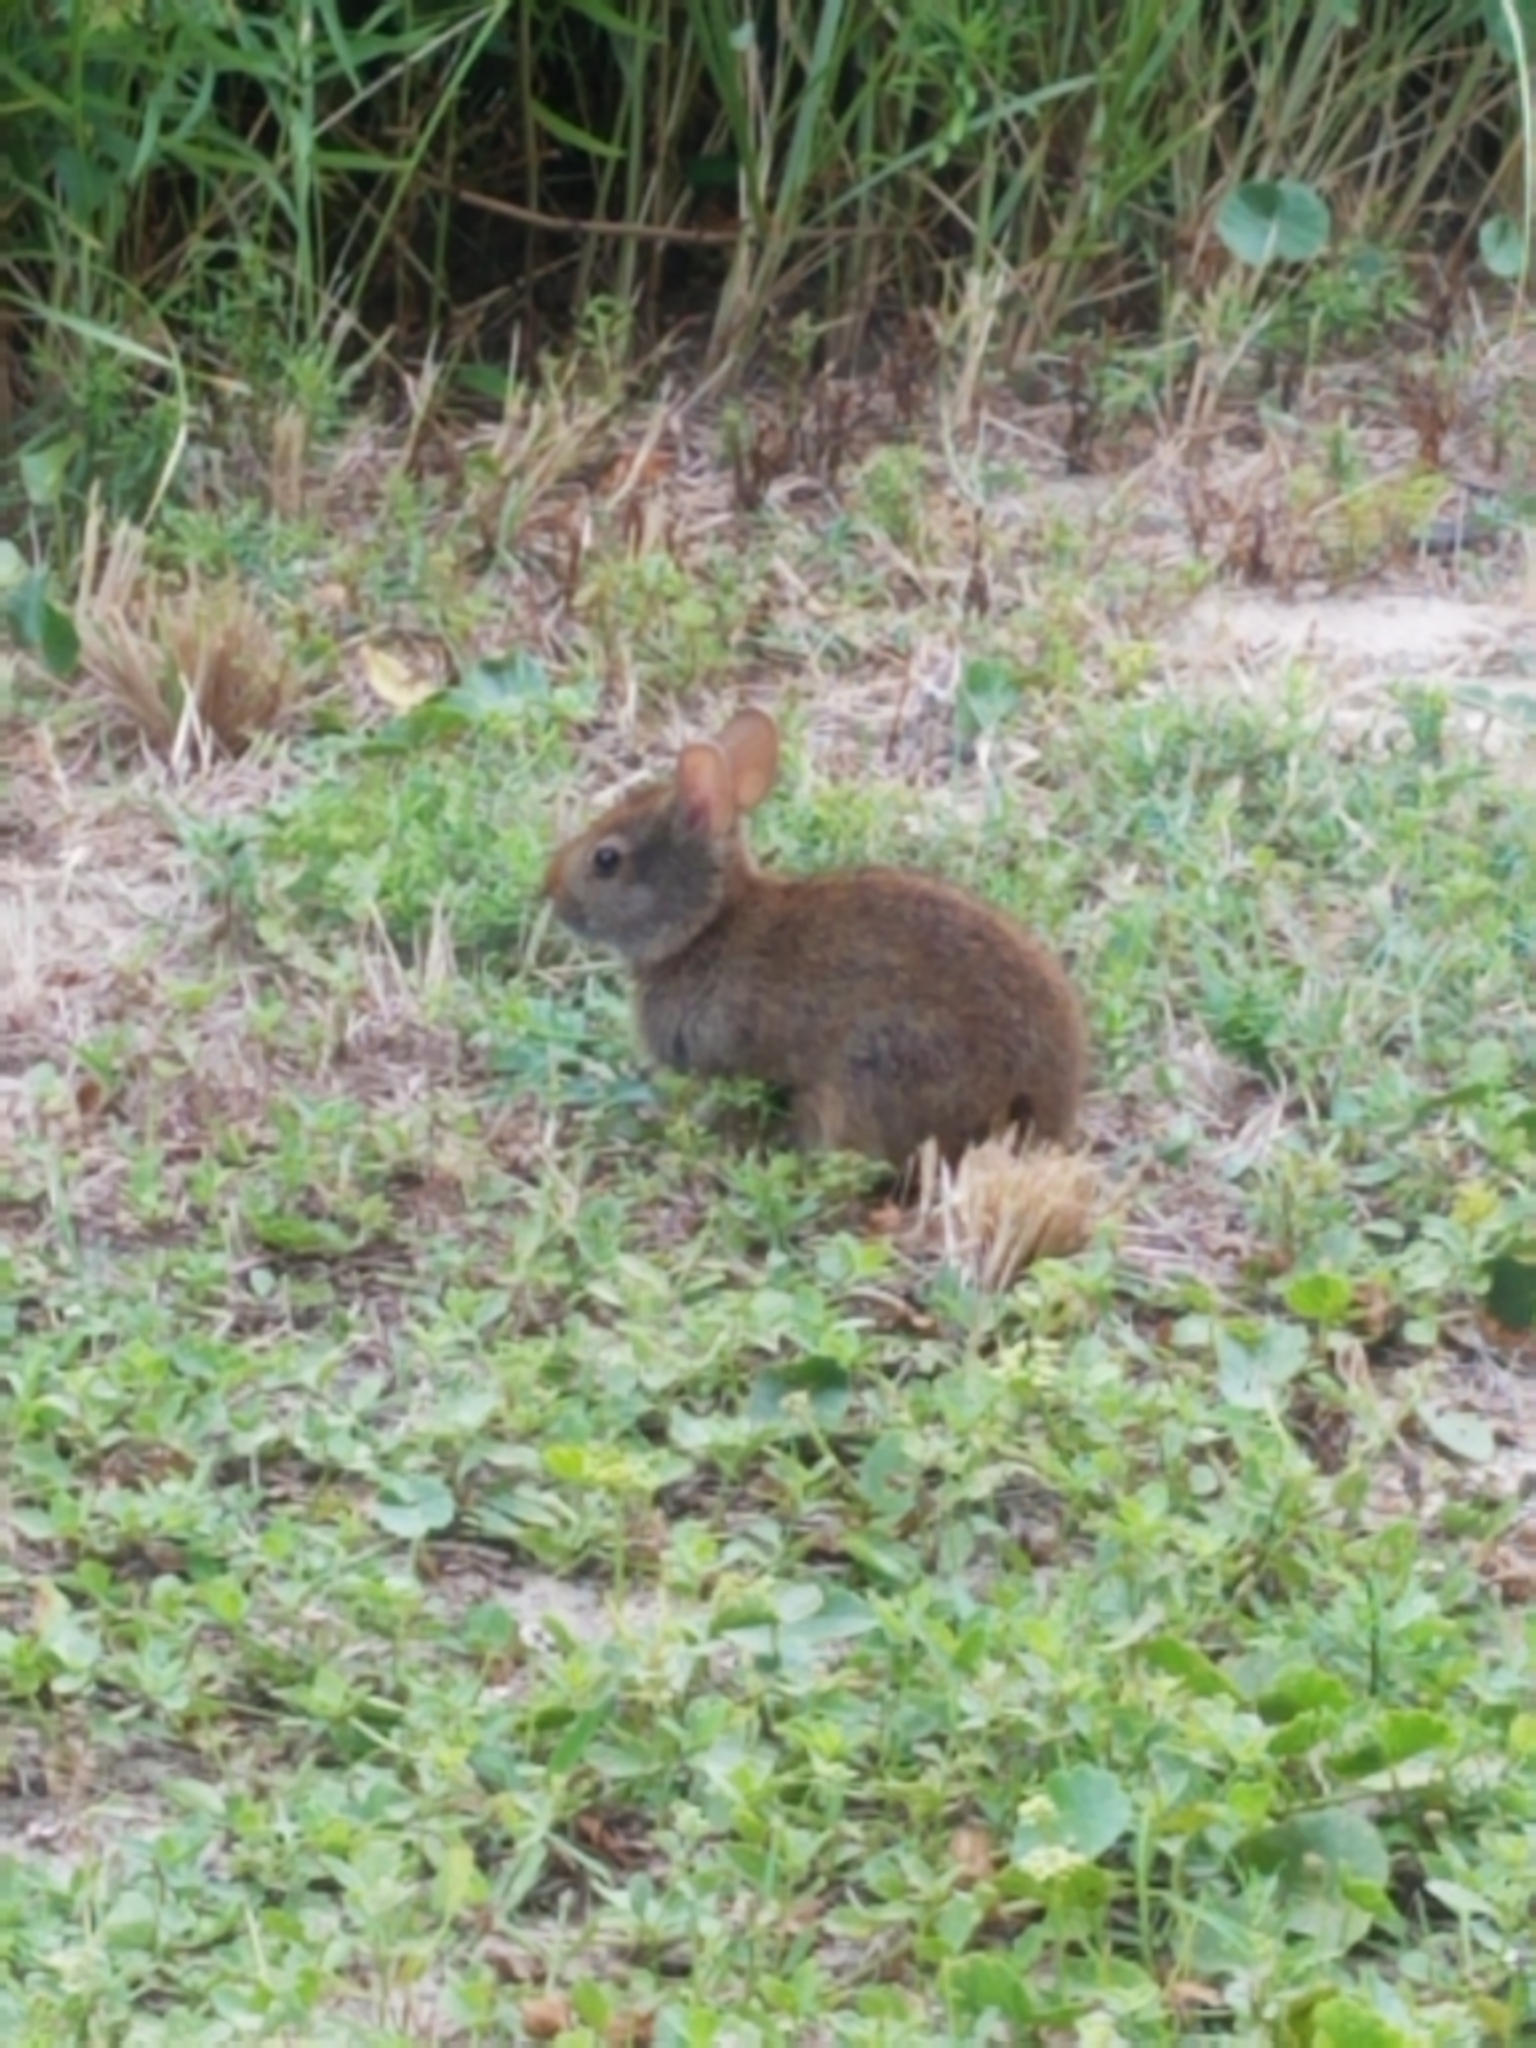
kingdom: Animalia
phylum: Chordata
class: Mammalia
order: Lagomorpha
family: Leporidae
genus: Sylvilagus
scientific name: Sylvilagus palustris
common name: Marsh rabbit
